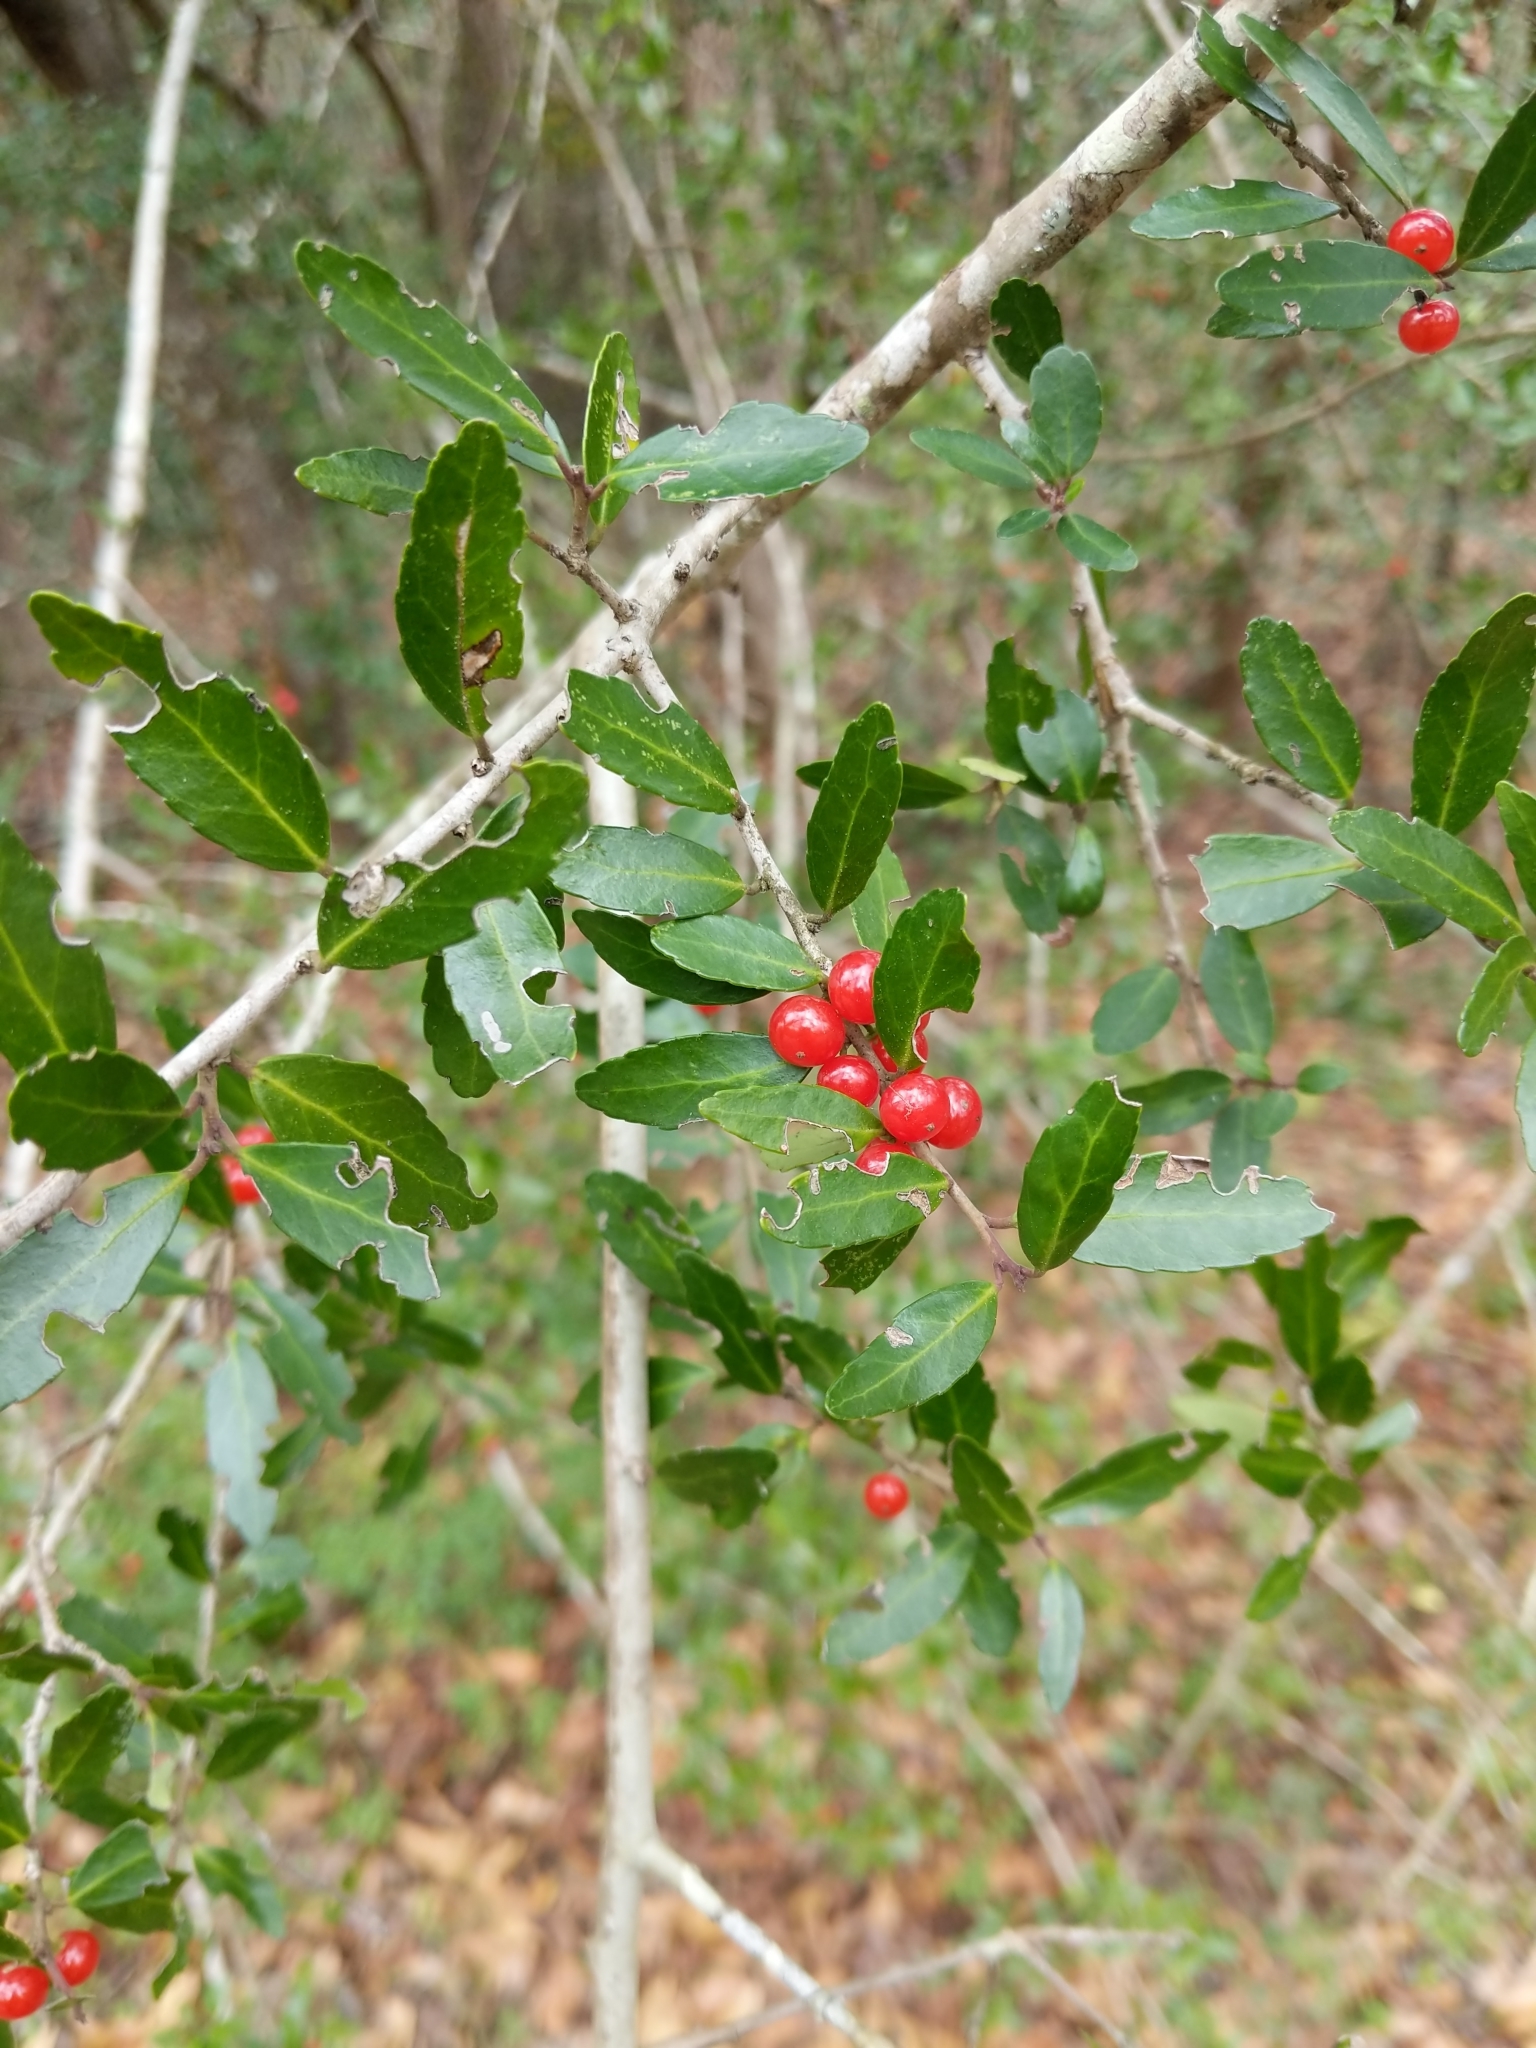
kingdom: Plantae
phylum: Tracheophyta
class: Magnoliopsida
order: Aquifoliales
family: Aquifoliaceae
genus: Ilex
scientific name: Ilex vomitoria
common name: Yaupon holly
